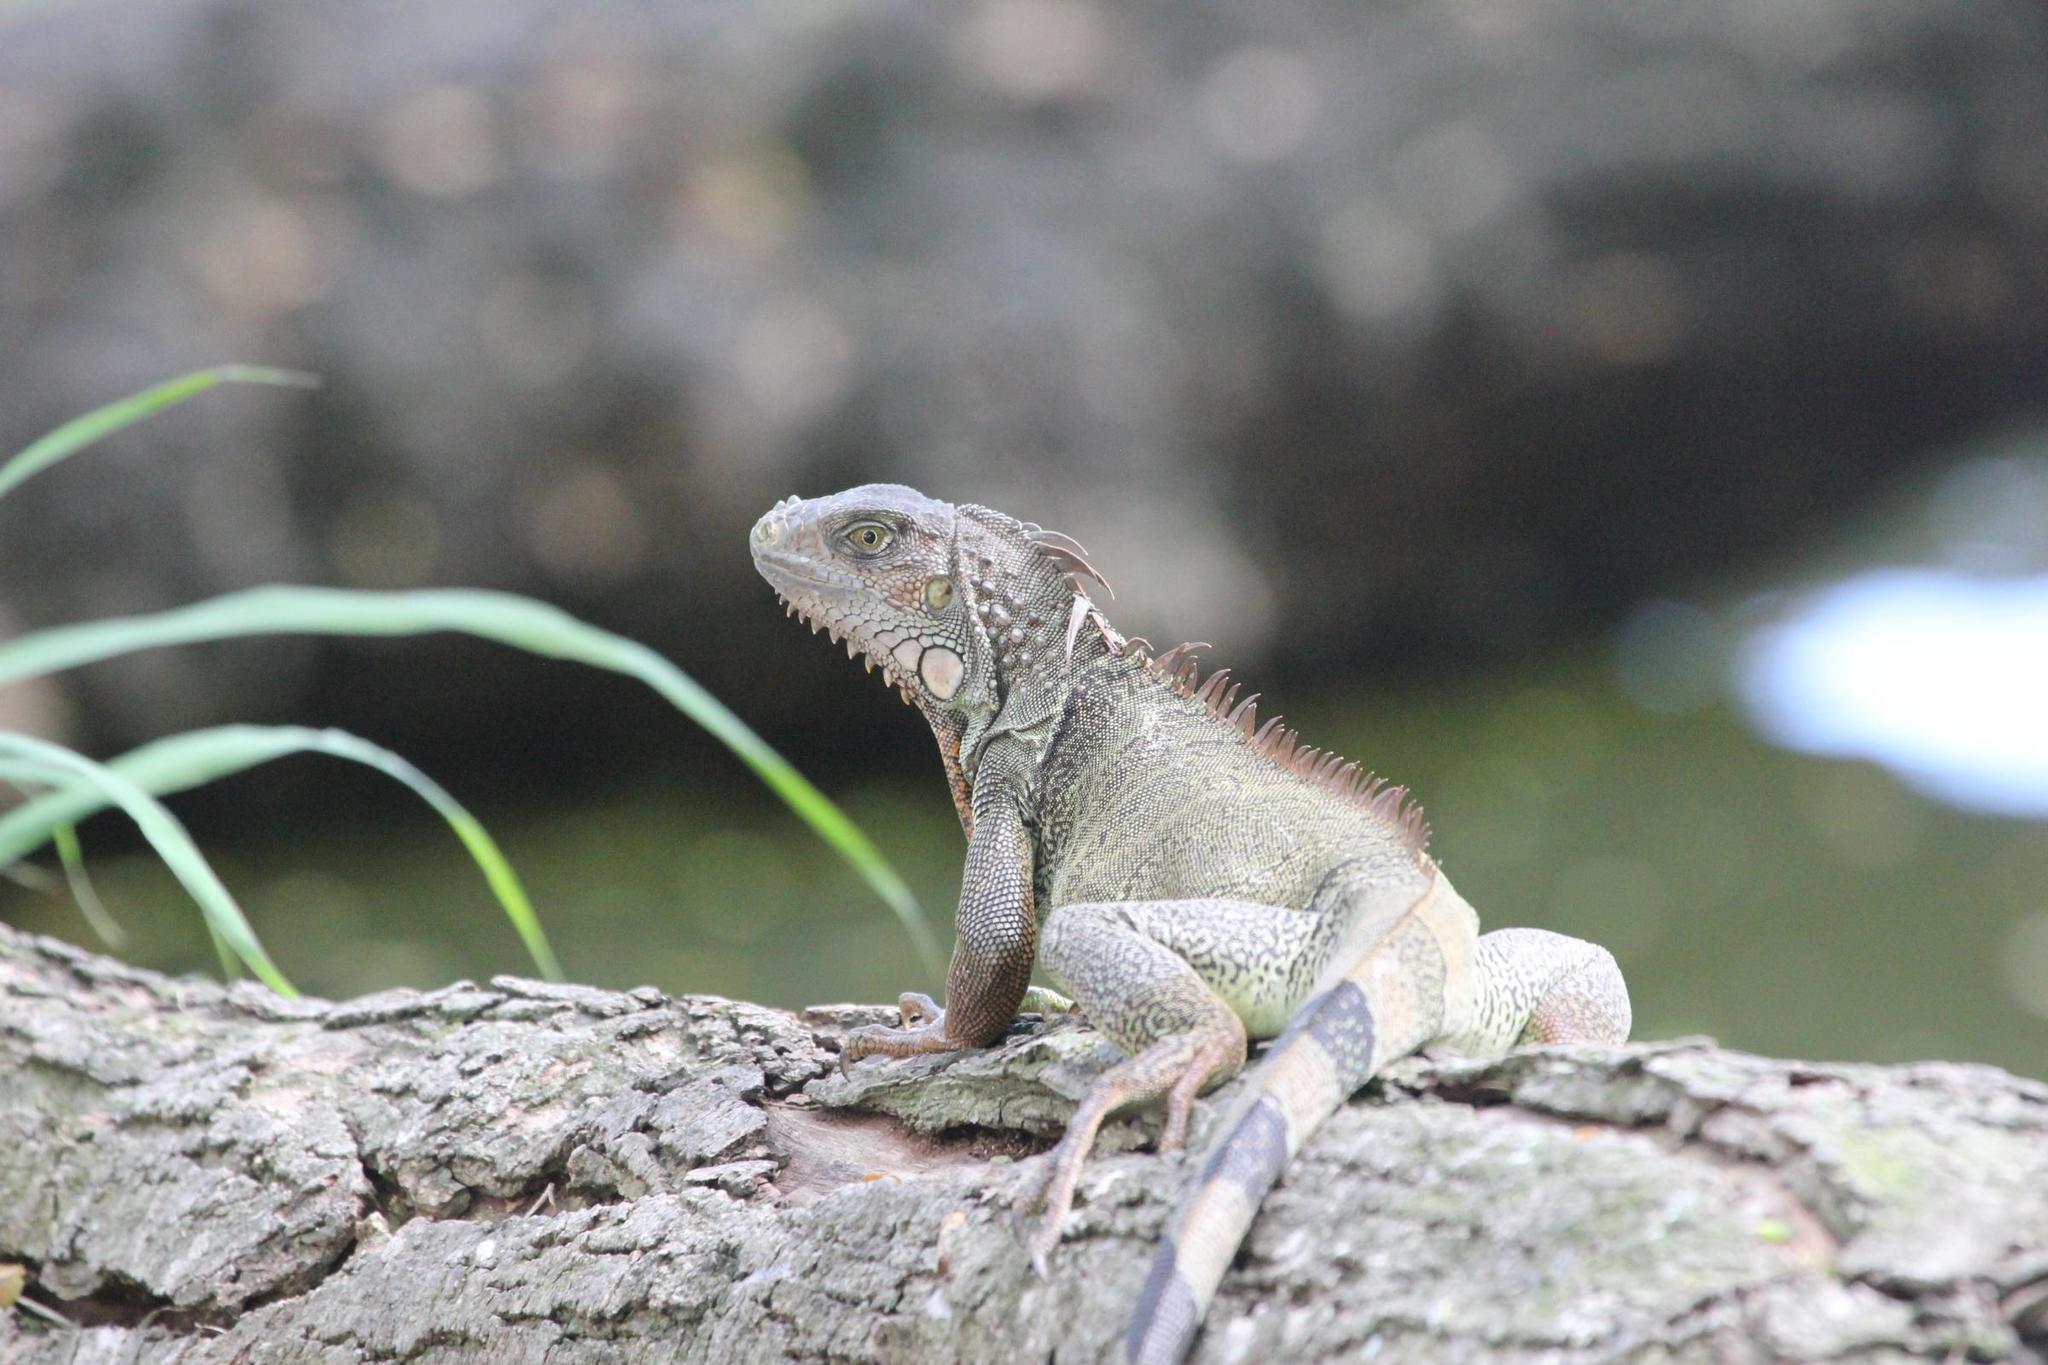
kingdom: Animalia
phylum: Chordata
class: Squamata
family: Iguanidae
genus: Iguana
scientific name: Iguana iguana
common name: Green iguana
